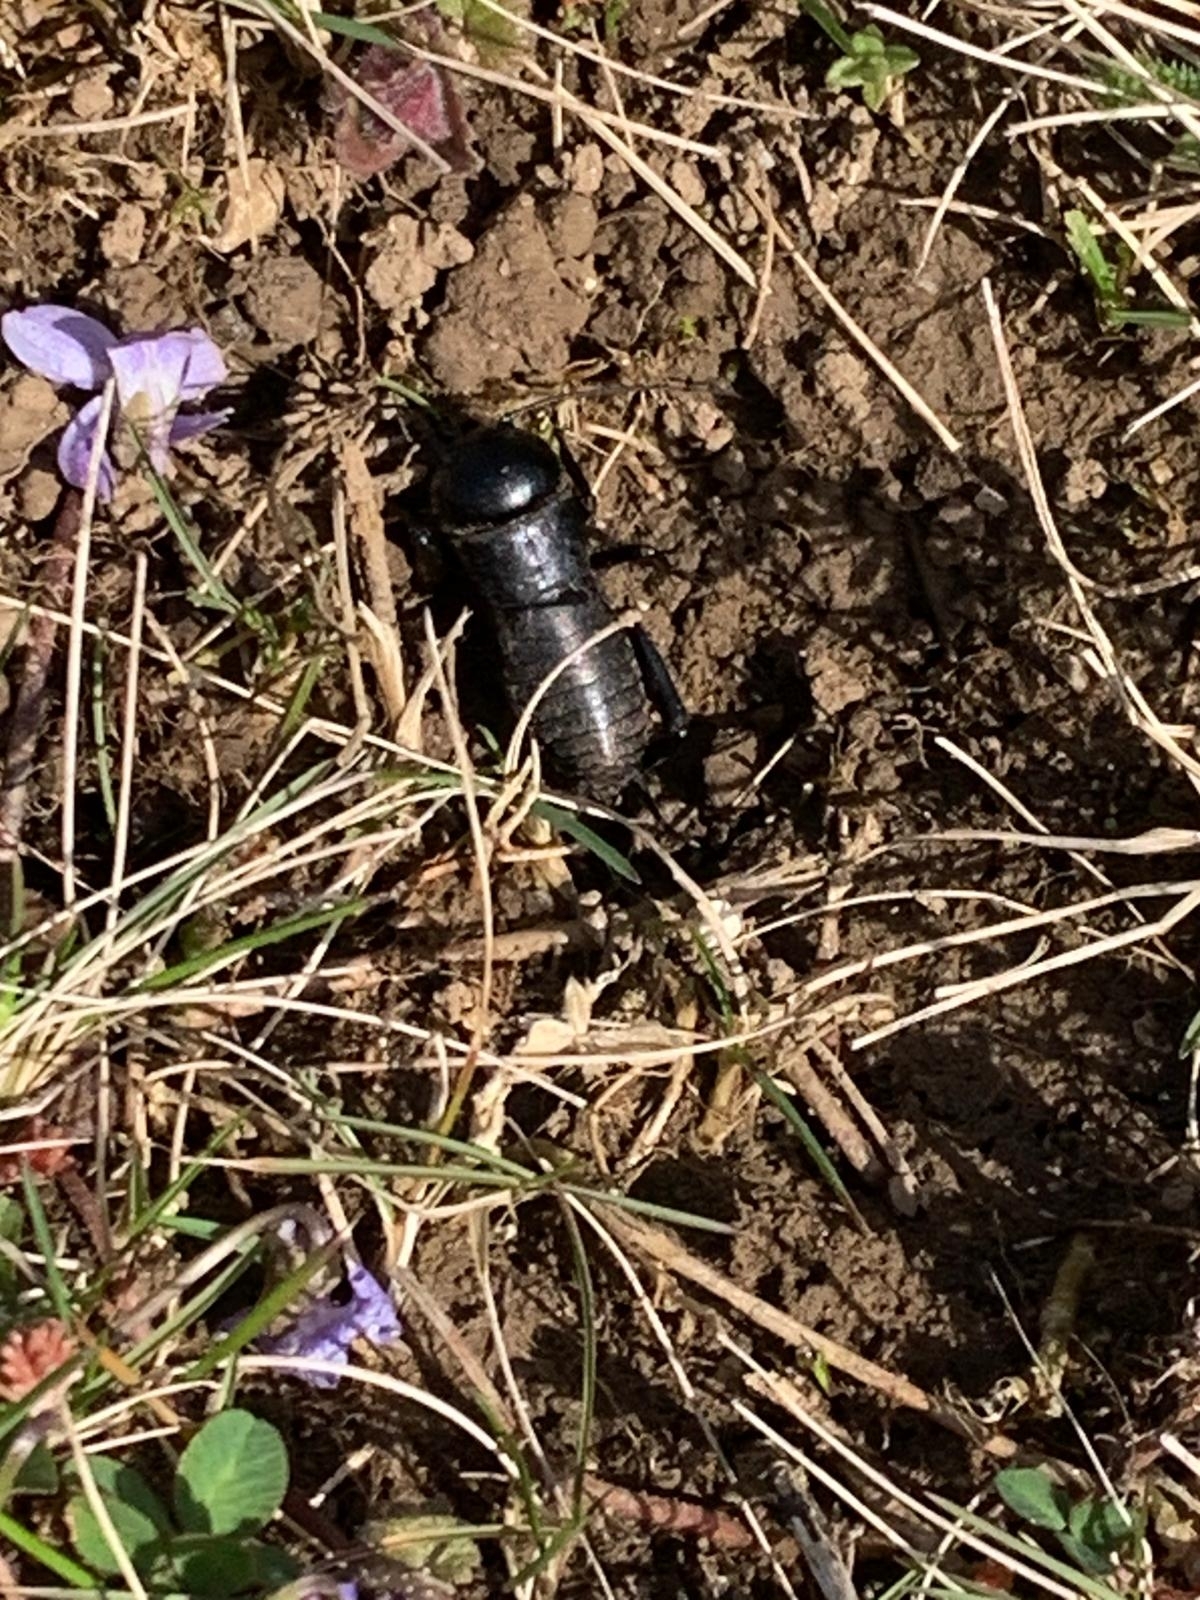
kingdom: Animalia
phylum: Arthropoda
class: Insecta
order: Orthoptera
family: Gryllidae
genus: Gryllus
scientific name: Gryllus campestris
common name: Field cricket
